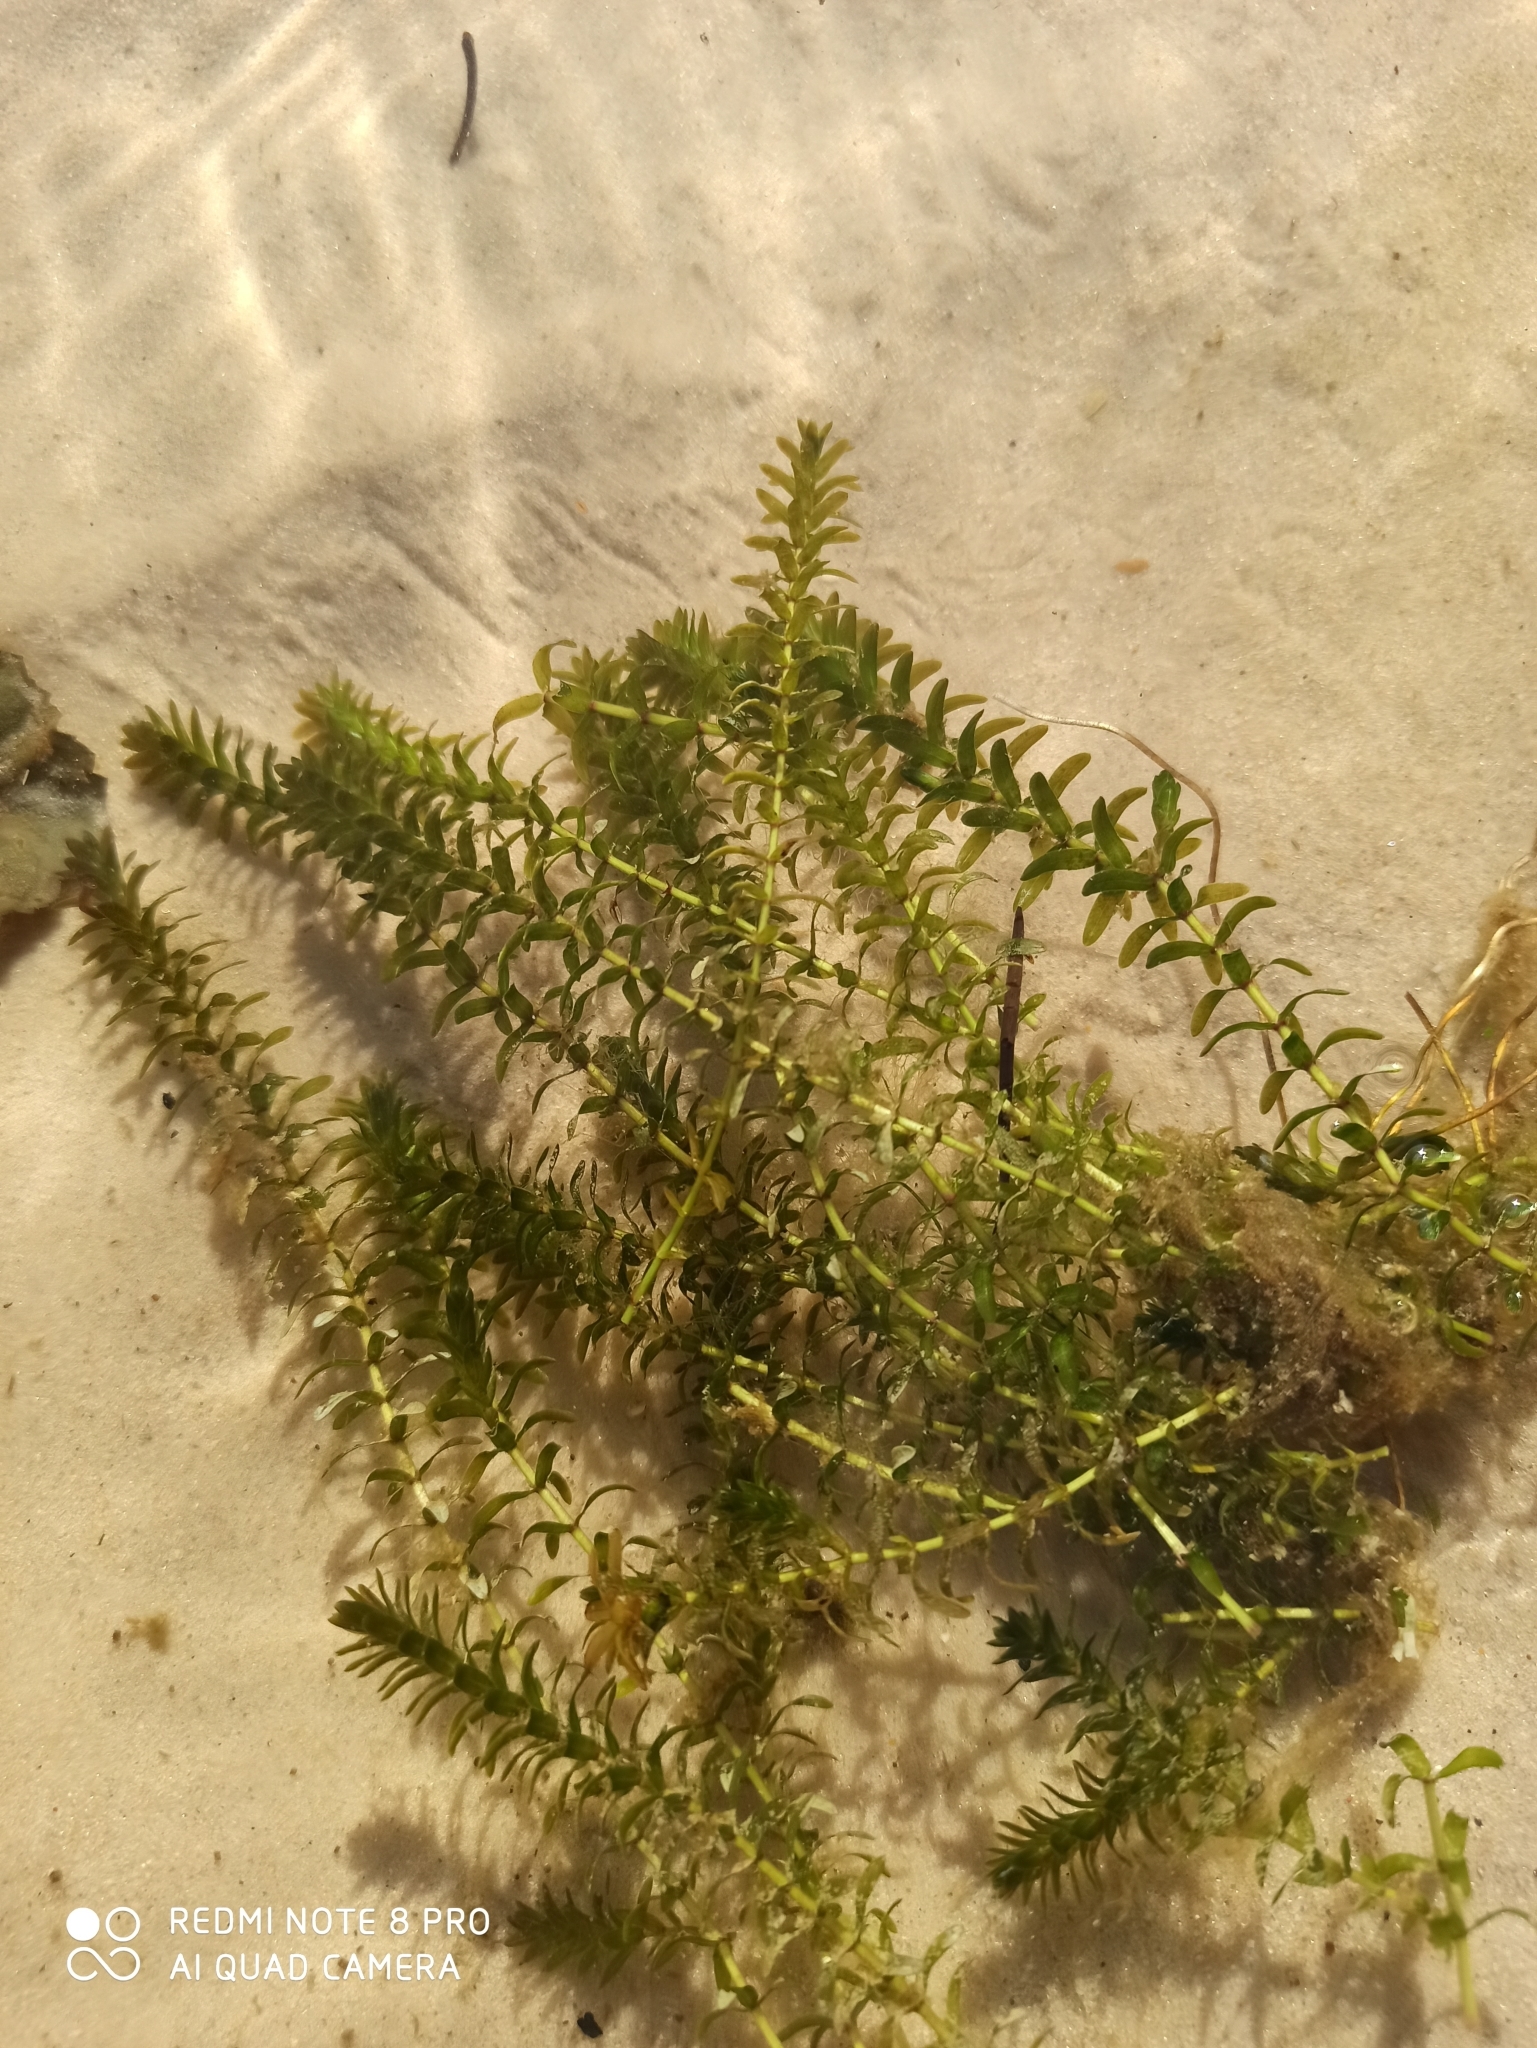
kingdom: Plantae
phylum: Tracheophyta
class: Liliopsida
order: Alismatales
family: Hydrocharitaceae
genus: Elodea
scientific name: Elodea canadensis
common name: Canadian waterweed
